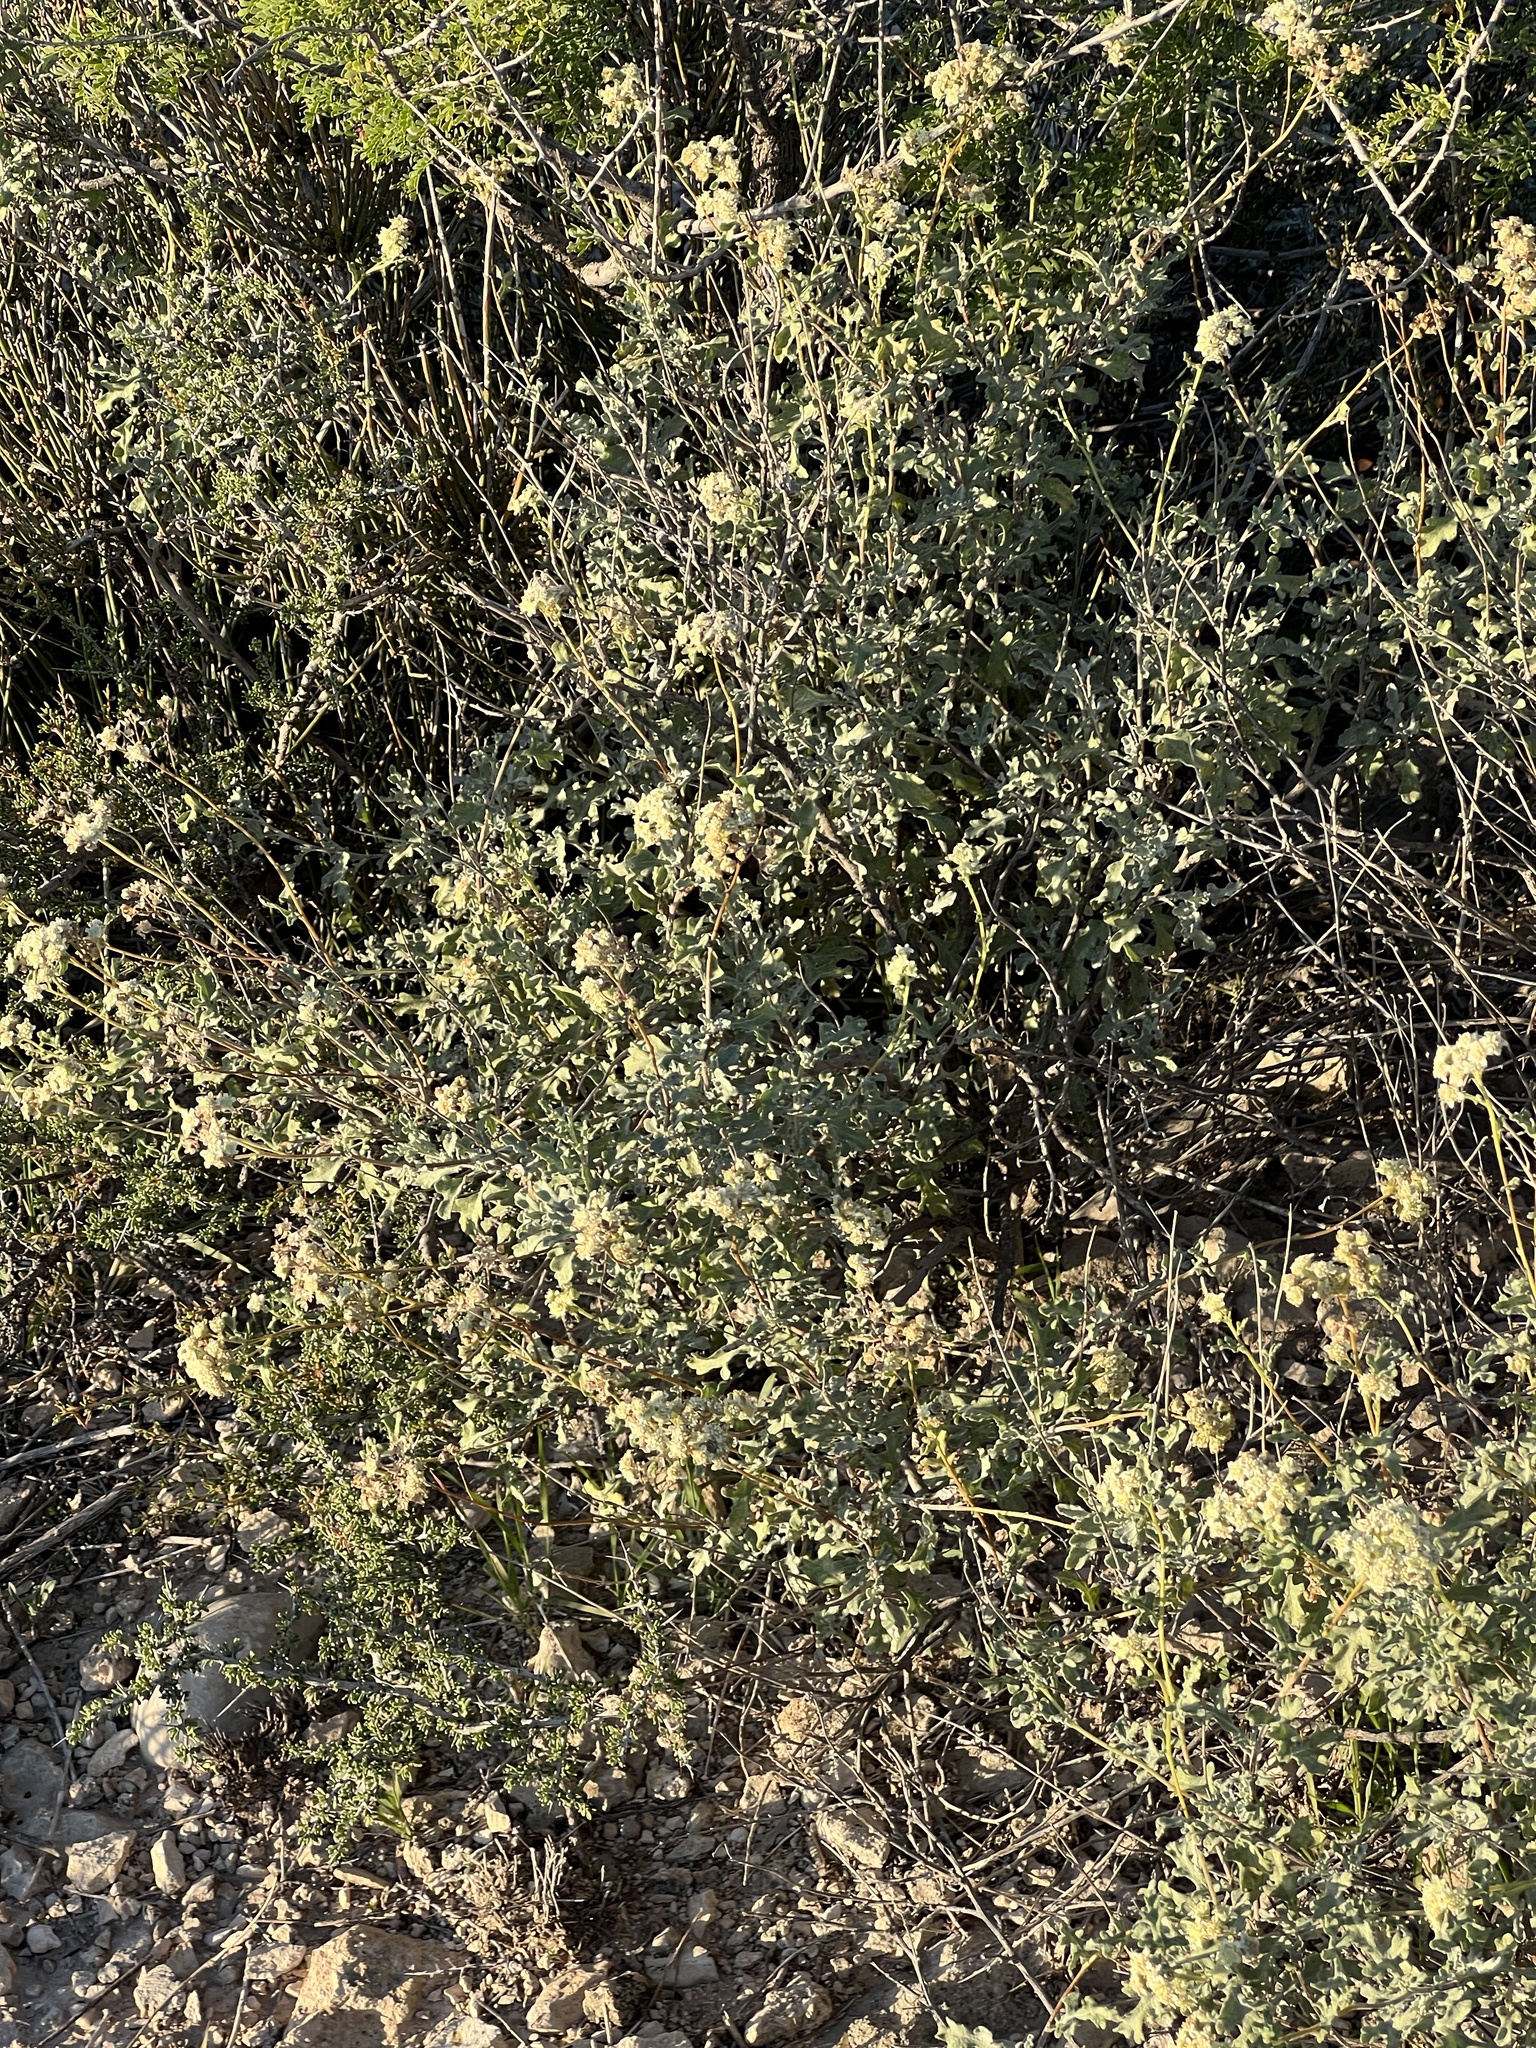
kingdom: Plantae
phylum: Tracheophyta
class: Magnoliopsida
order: Asterales
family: Asteraceae
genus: Parthenium
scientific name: Parthenium incanum
